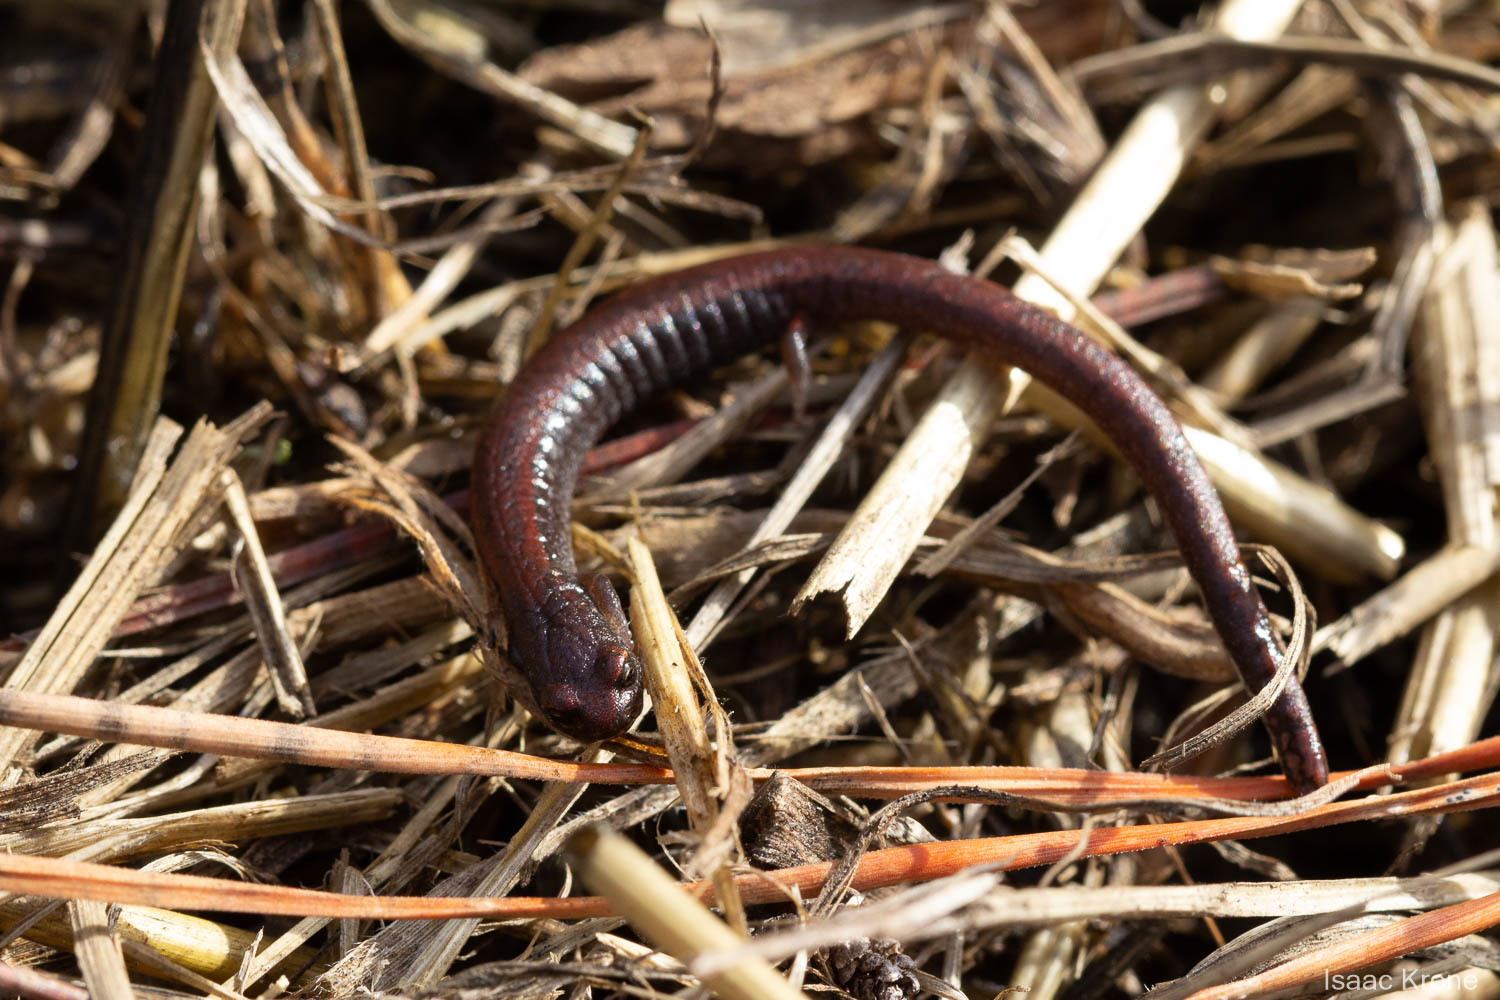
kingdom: Animalia
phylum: Chordata
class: Amphibia
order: Caudata
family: Plethodontidae
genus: Batrachoseps
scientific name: Batrachoseps attenuatus
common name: California slender salamander
